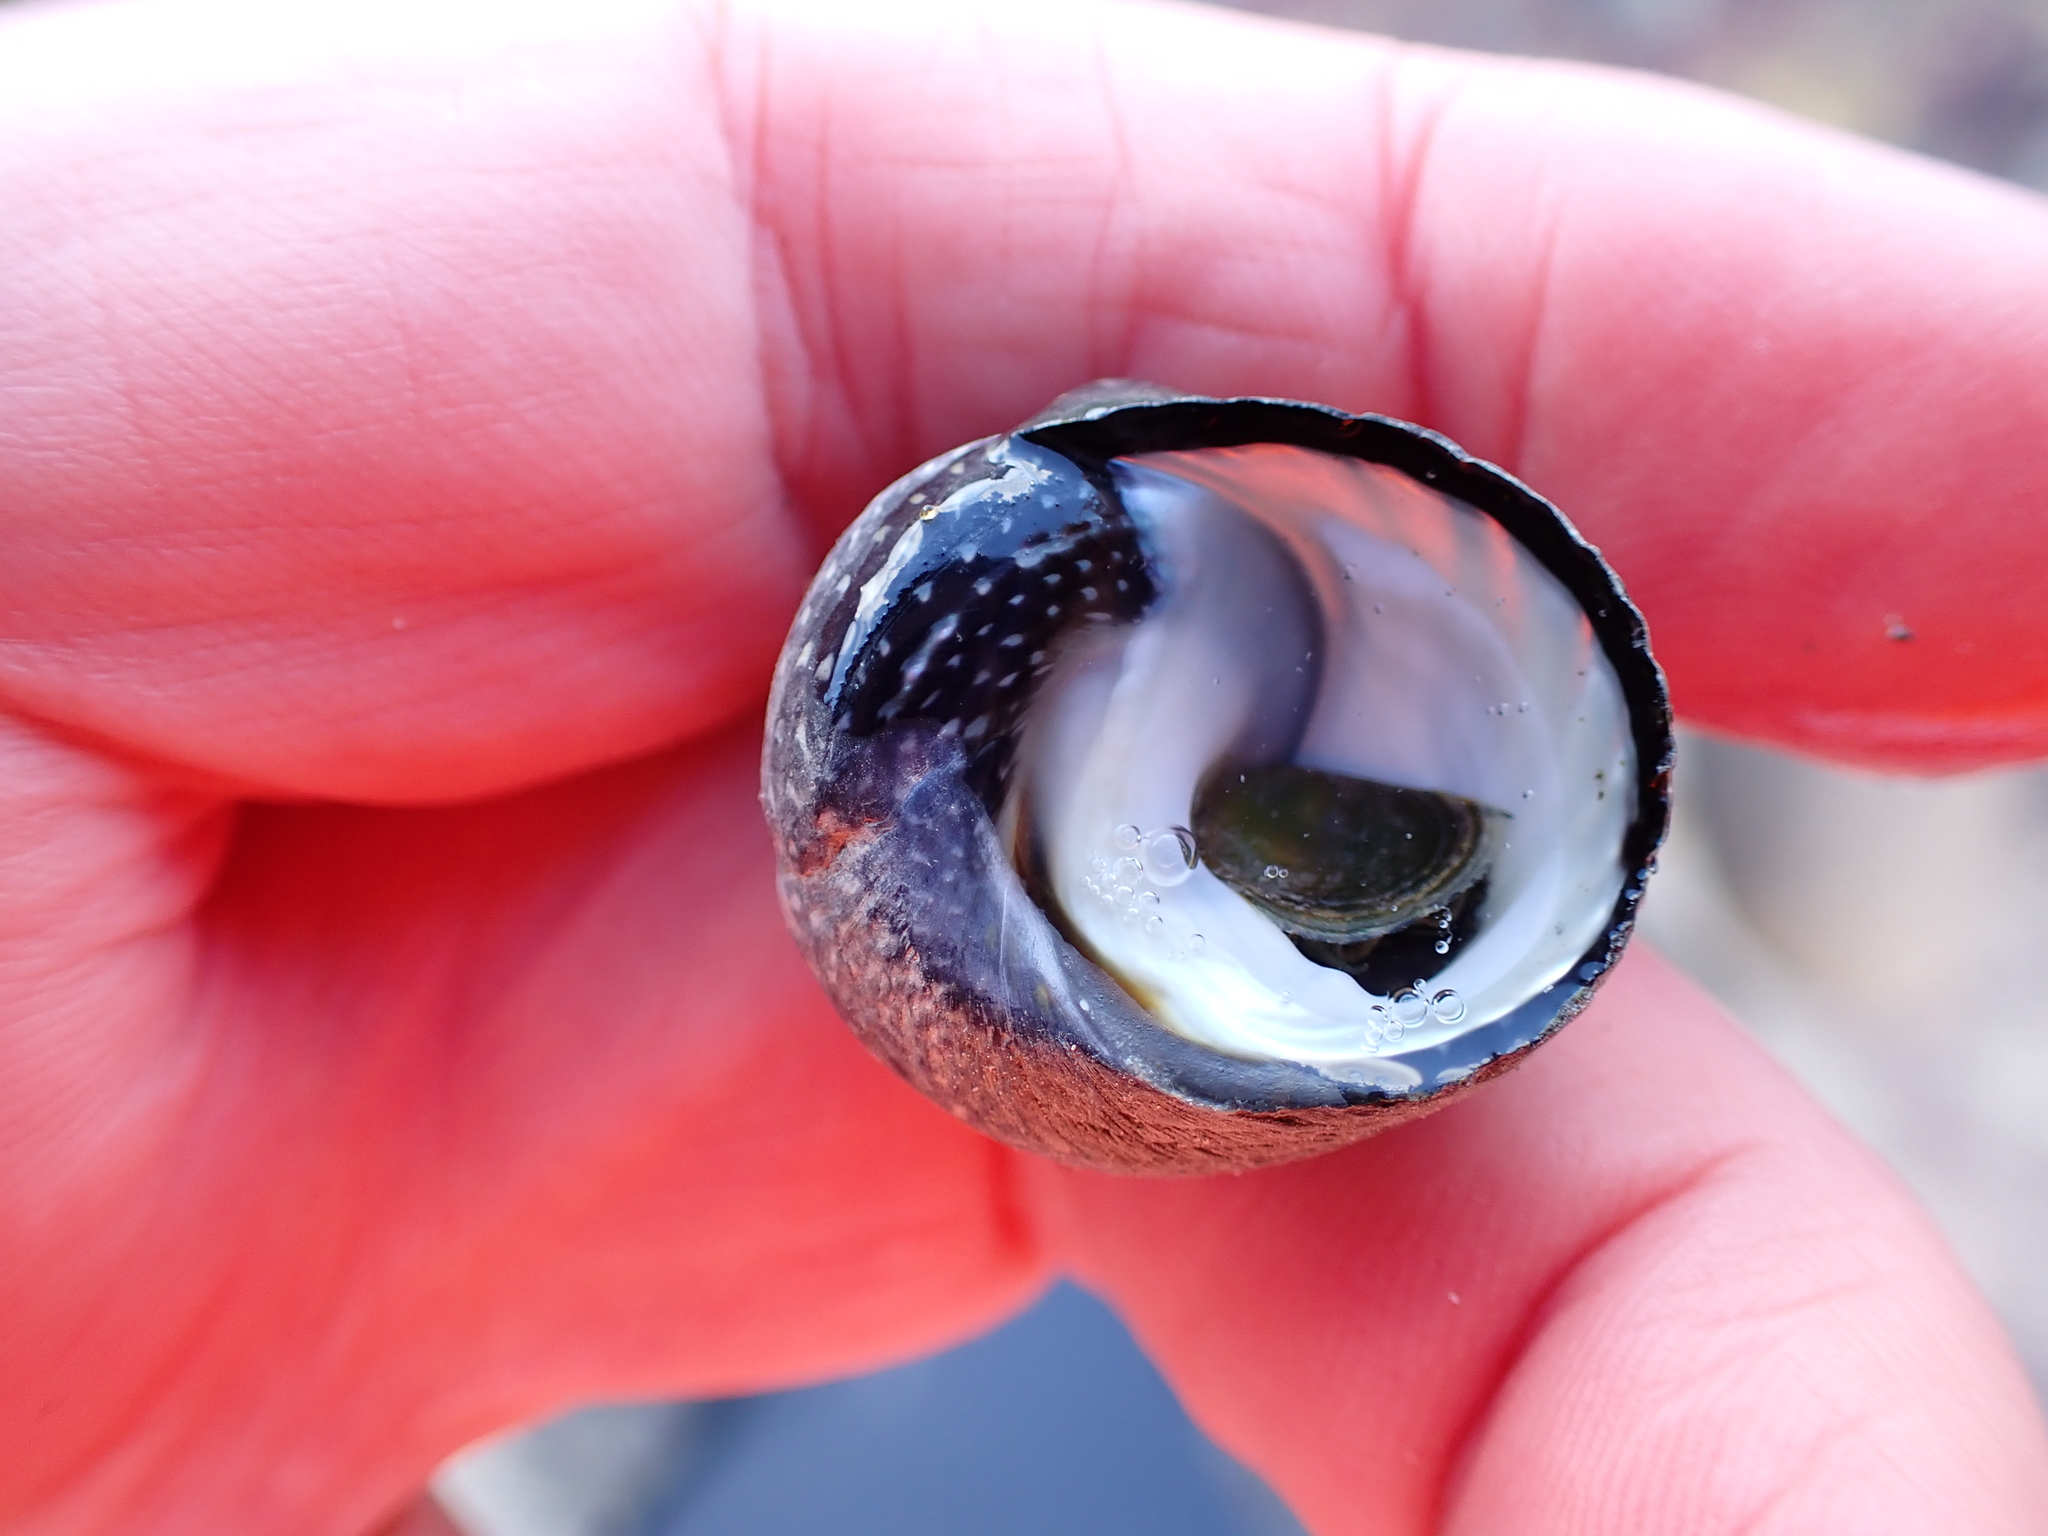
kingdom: Animalia
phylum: Mollusca
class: Gastropoda
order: Trochida
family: Trochidae
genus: Diloma
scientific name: Diloma aethiops
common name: Scorched monodont
